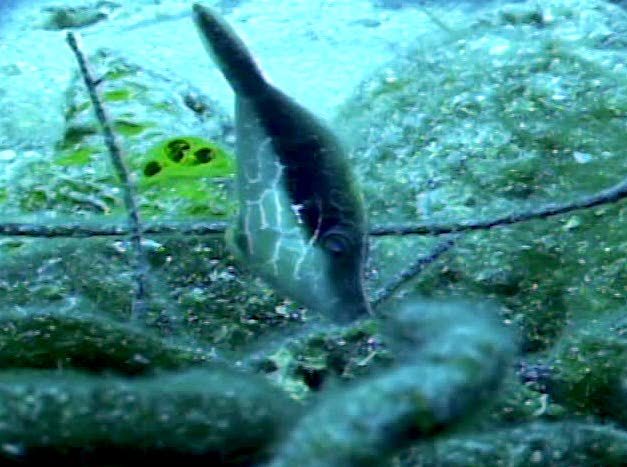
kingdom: Animalia
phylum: Chordata
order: Tetraodontiformes
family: Monacanthidae
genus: Monacanthus
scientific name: Monacanthus tuckeri
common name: Slender filefish
